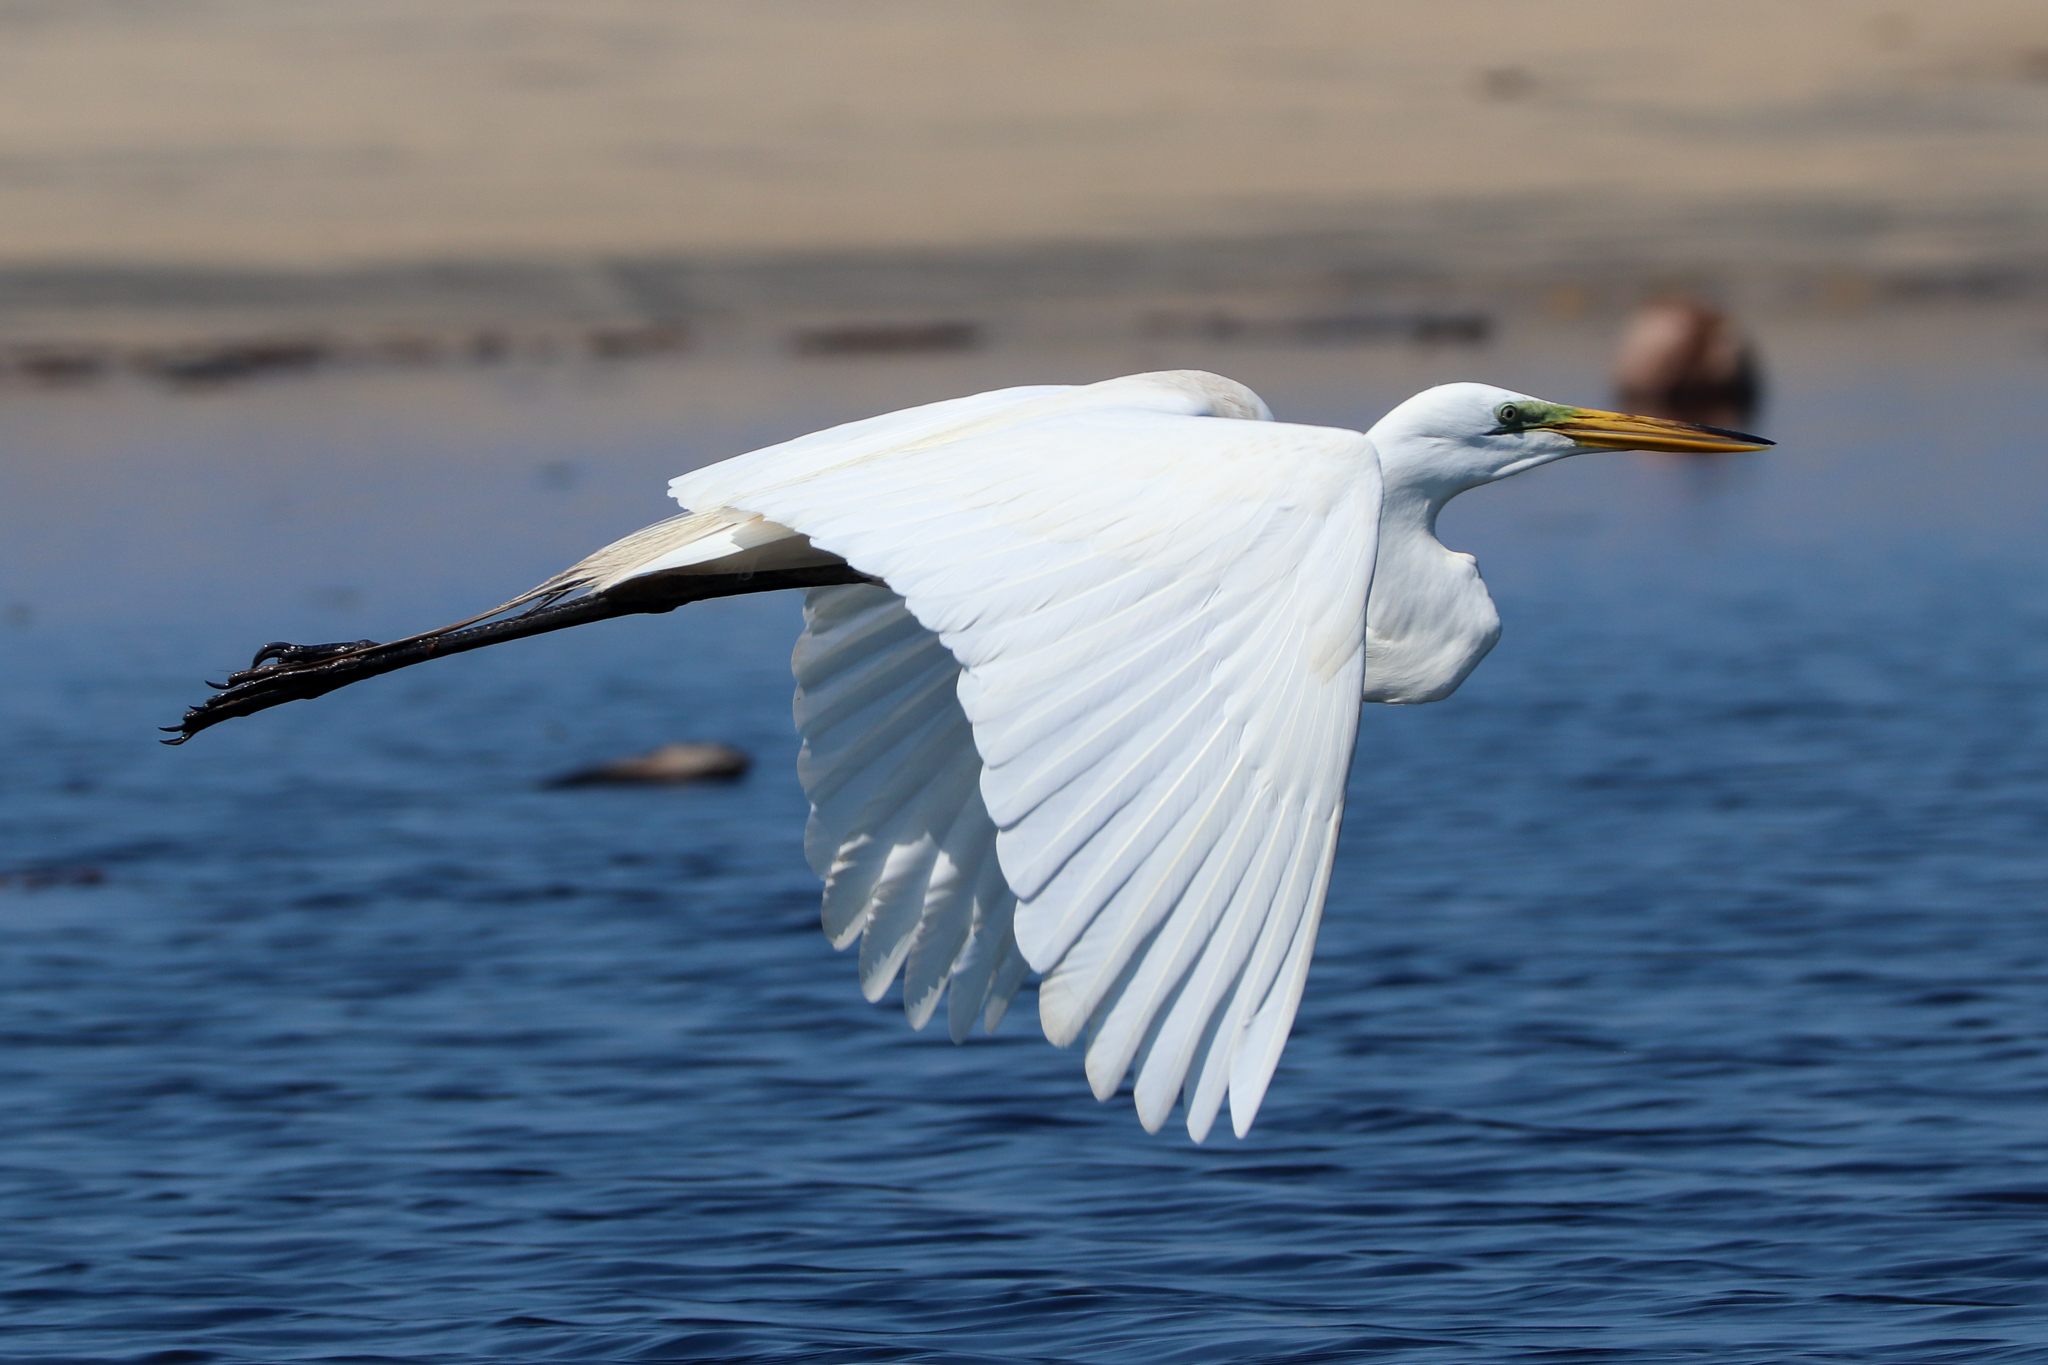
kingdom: Animalia
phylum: Chordata
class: Aves
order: Pelecaniformes
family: Ardeidae
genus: Ardea
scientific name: Ardea alba
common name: Great egret
